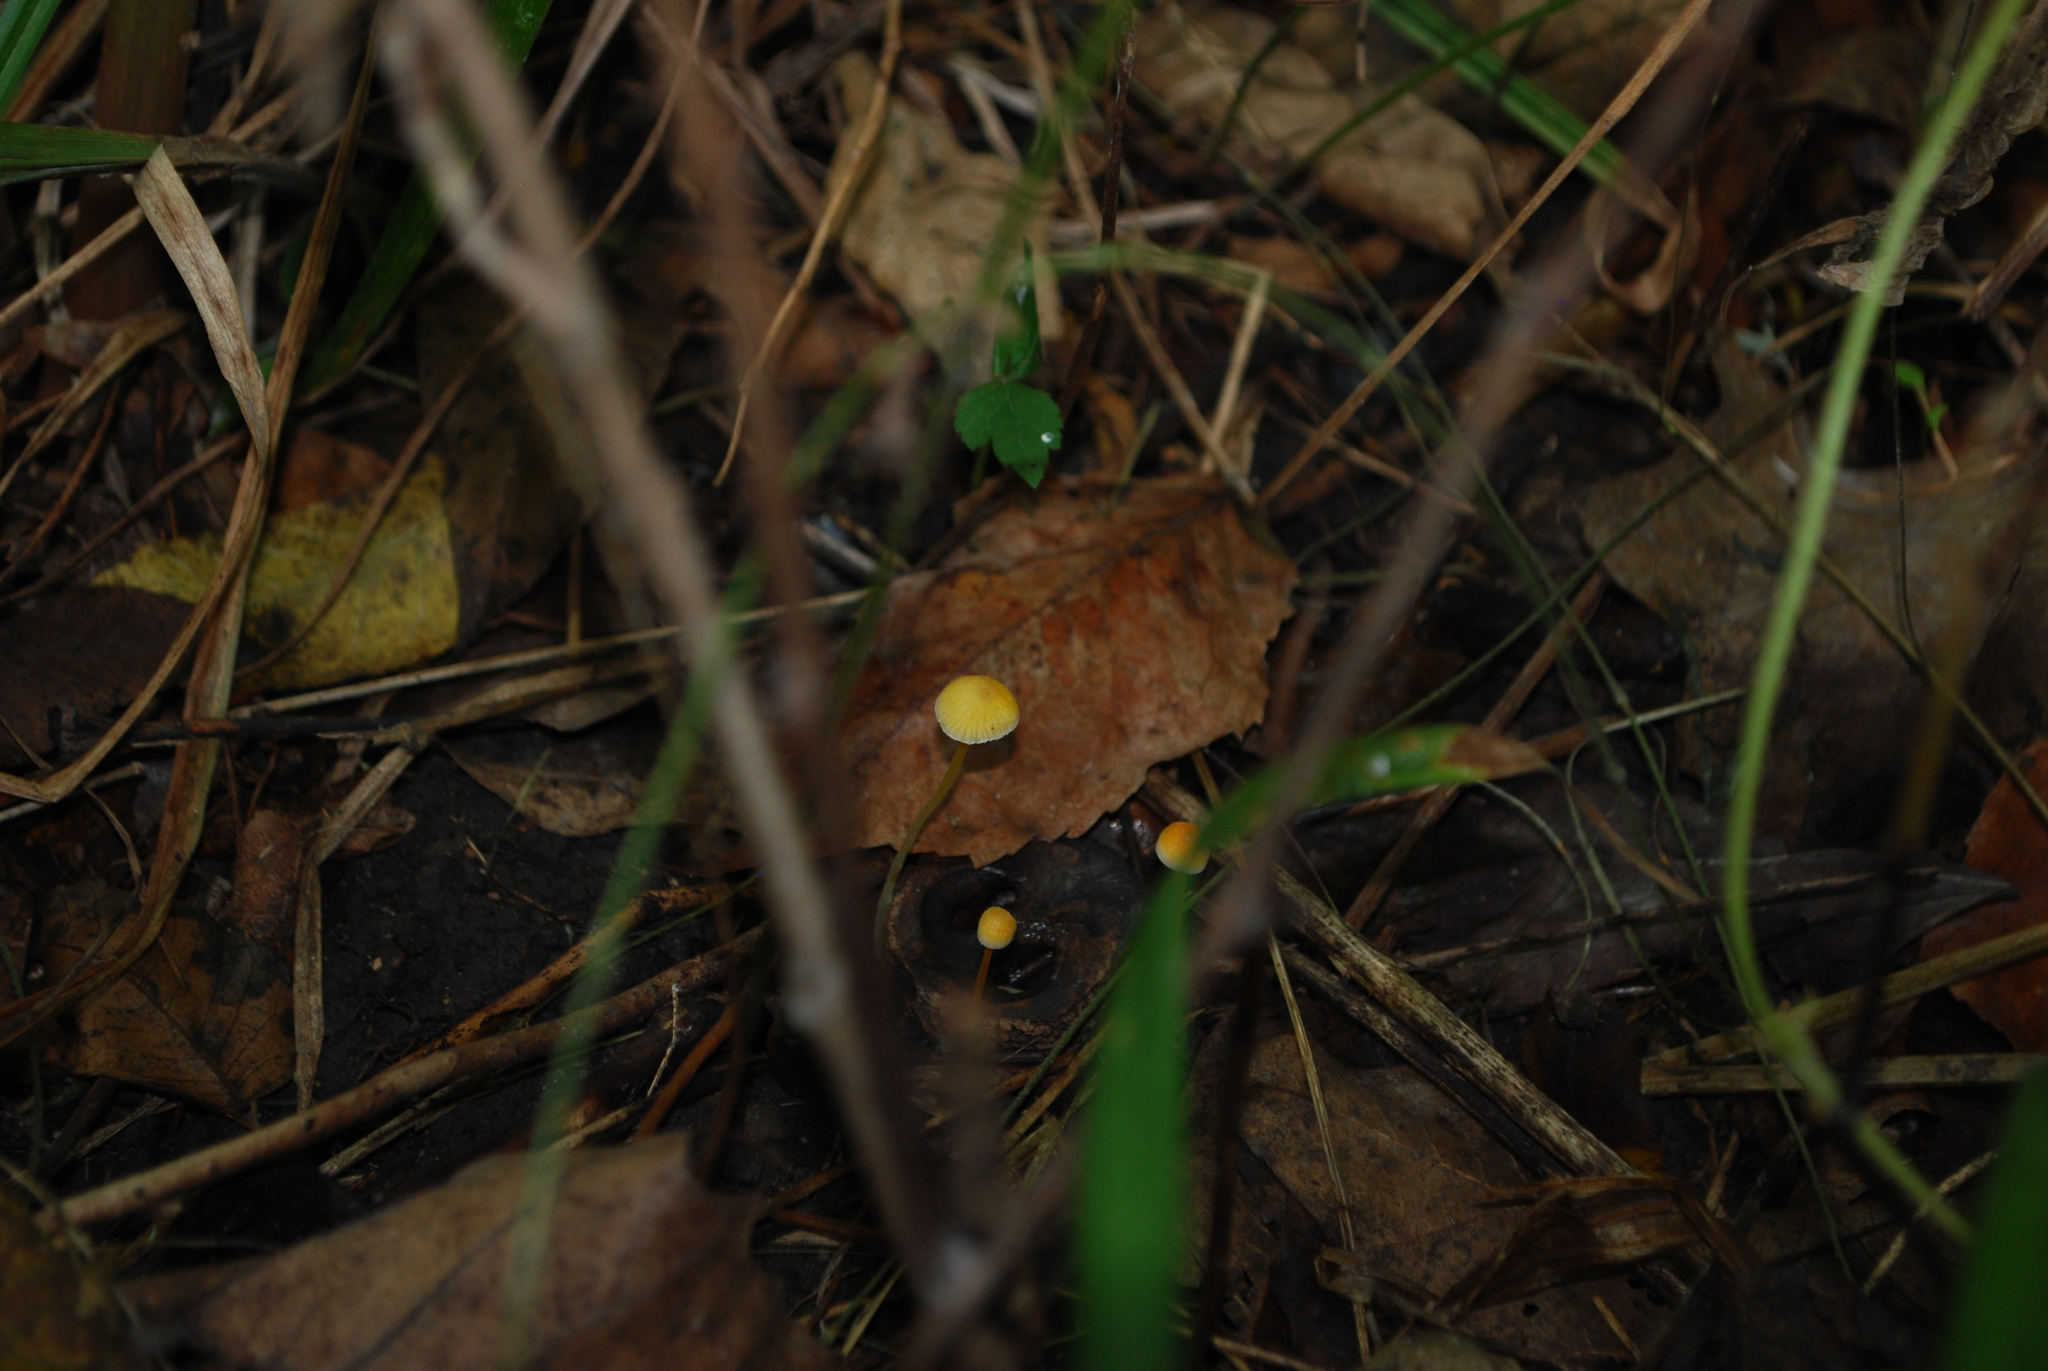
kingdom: Fungi
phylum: Basidiomycota
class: Agaricomycetes
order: Agaricales
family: Mycenaceae
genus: Mycena
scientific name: Mycena crocea
